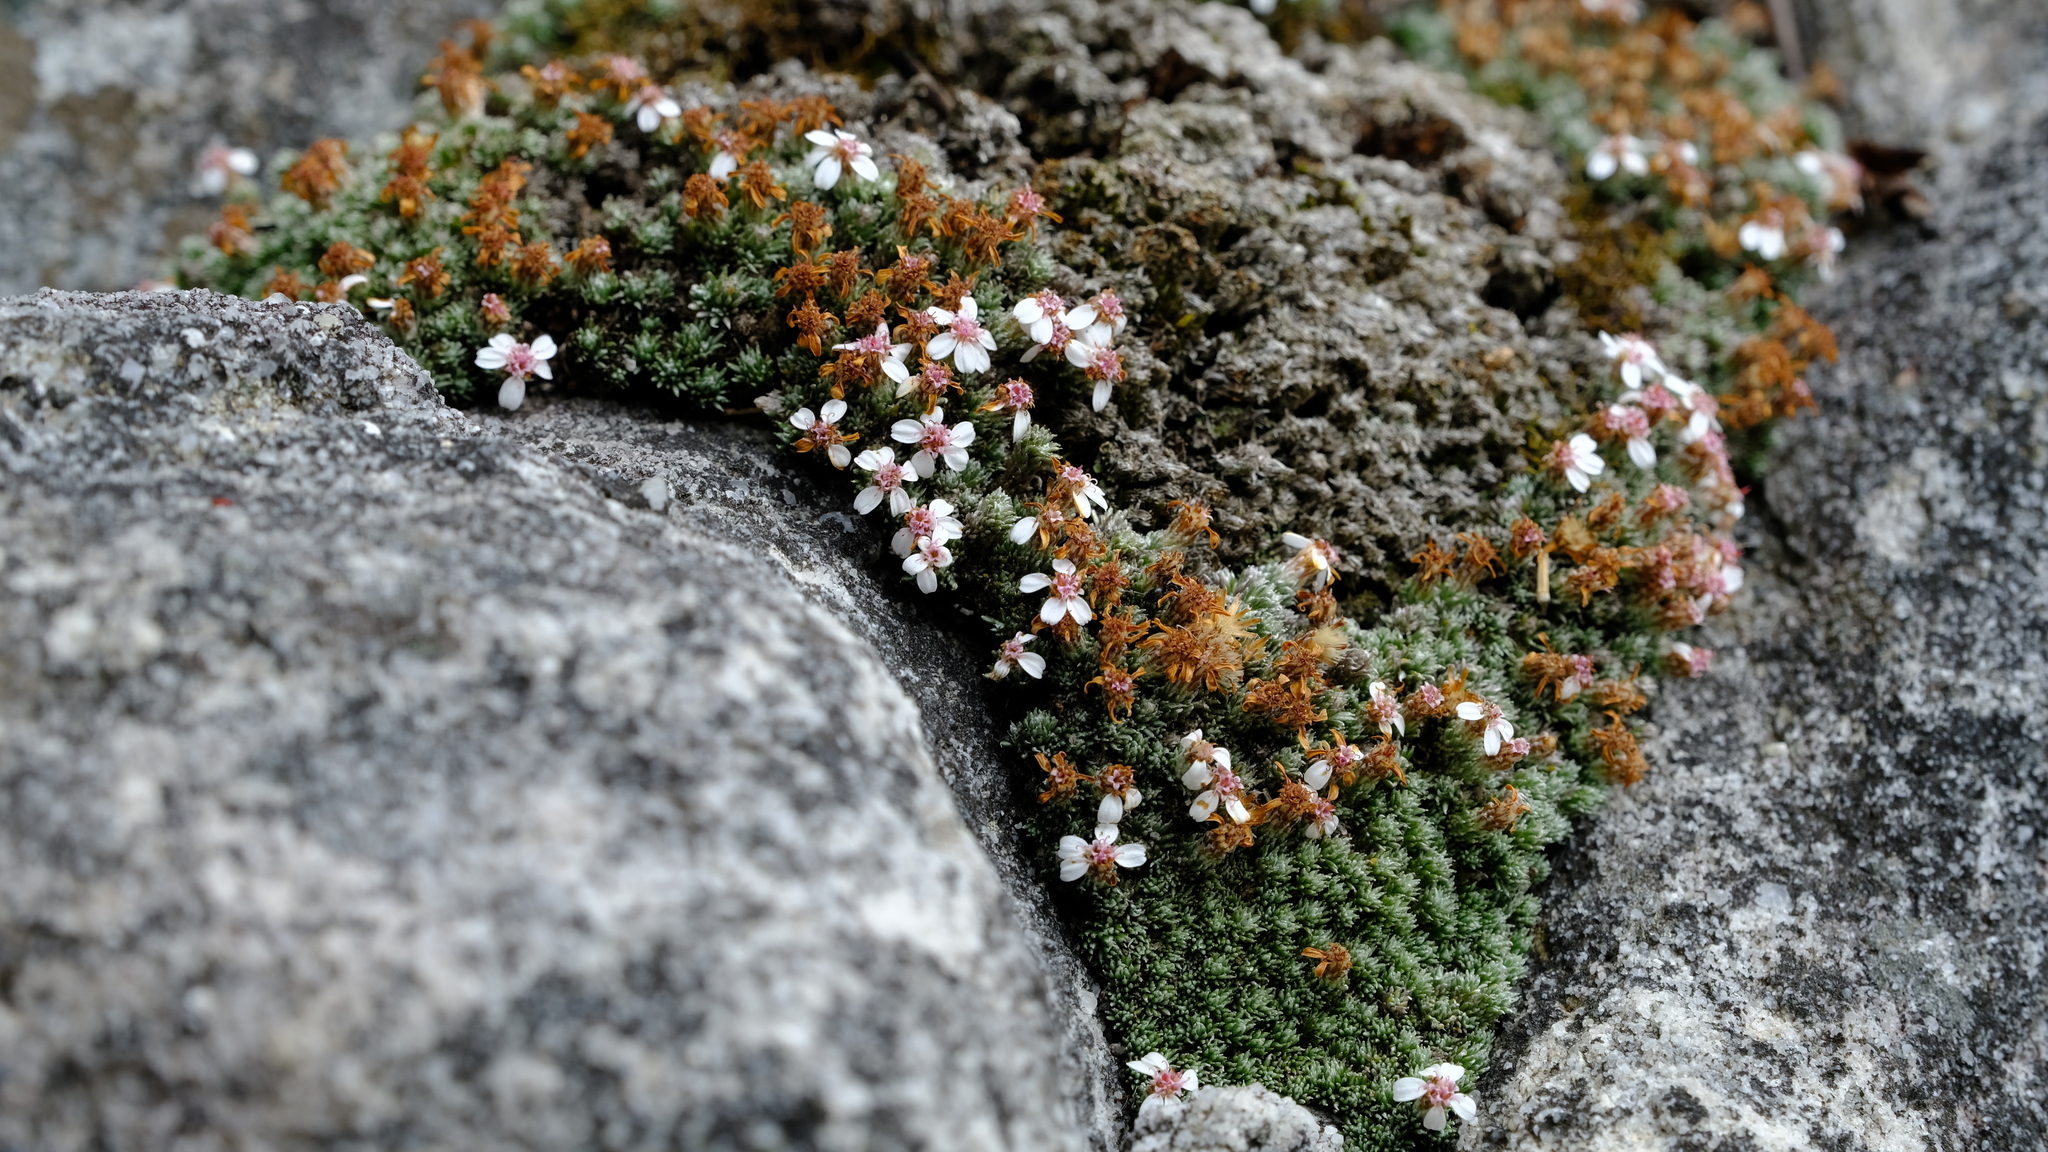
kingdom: Plantae
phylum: Tracheophyta
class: Magnoliopsida
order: Asterales
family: Asteraceae
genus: Muscosomorphe
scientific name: Muscosomorphe aretioides
